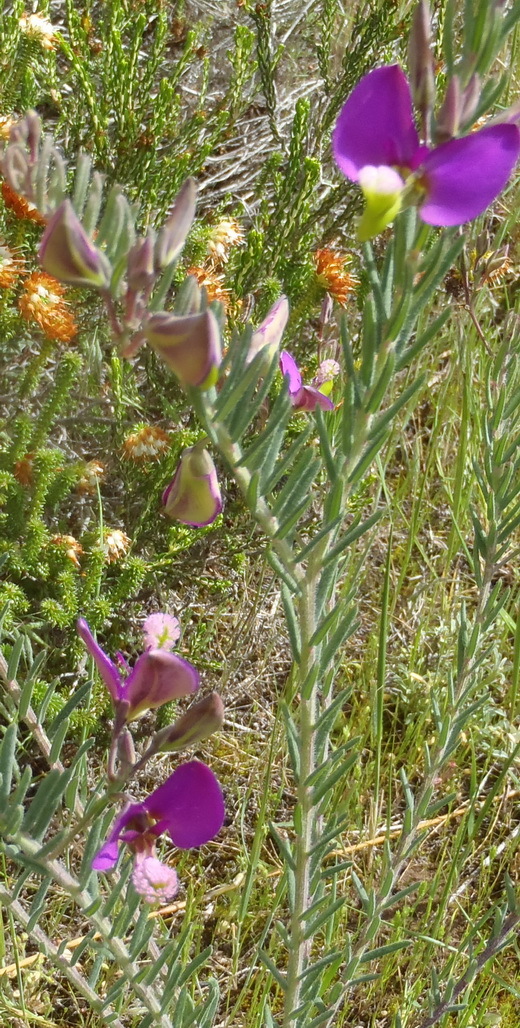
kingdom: Plantae
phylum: Tracheophyta
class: Magnoliopsida
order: Fabales
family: Polygalaceae
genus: Polygala
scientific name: Polygala peduncularis
